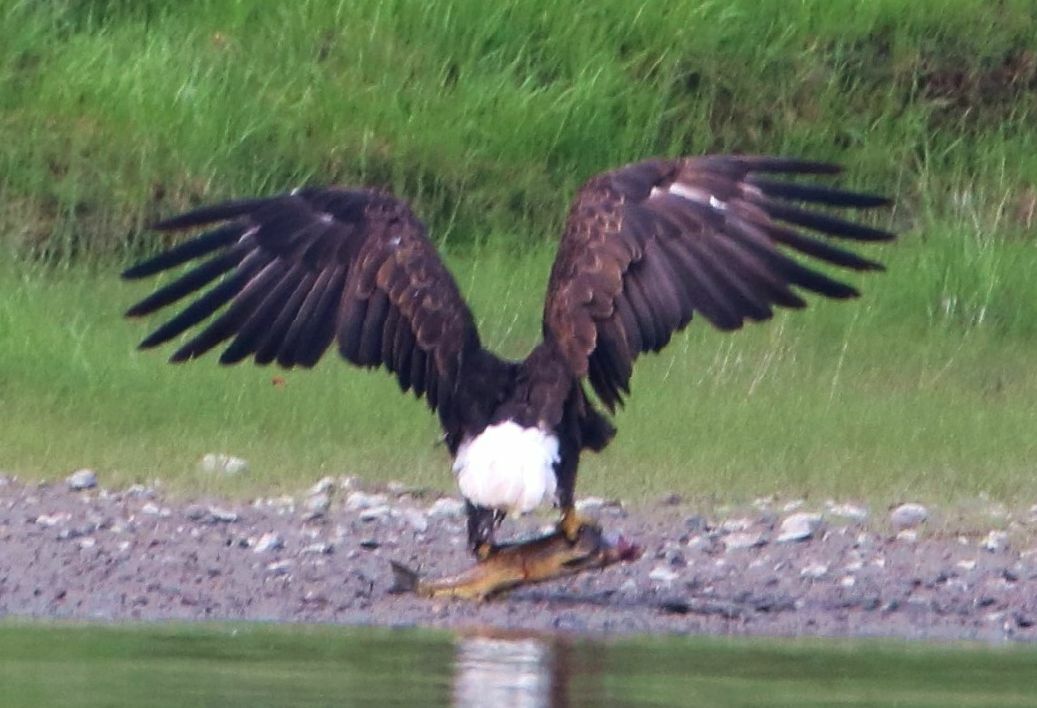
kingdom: Animalia
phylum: Chordata
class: Aves
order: Accipitriformes
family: Accipitridae
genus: Haliaeetus
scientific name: Haliaeetus leucocephalus
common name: Bald eagle
